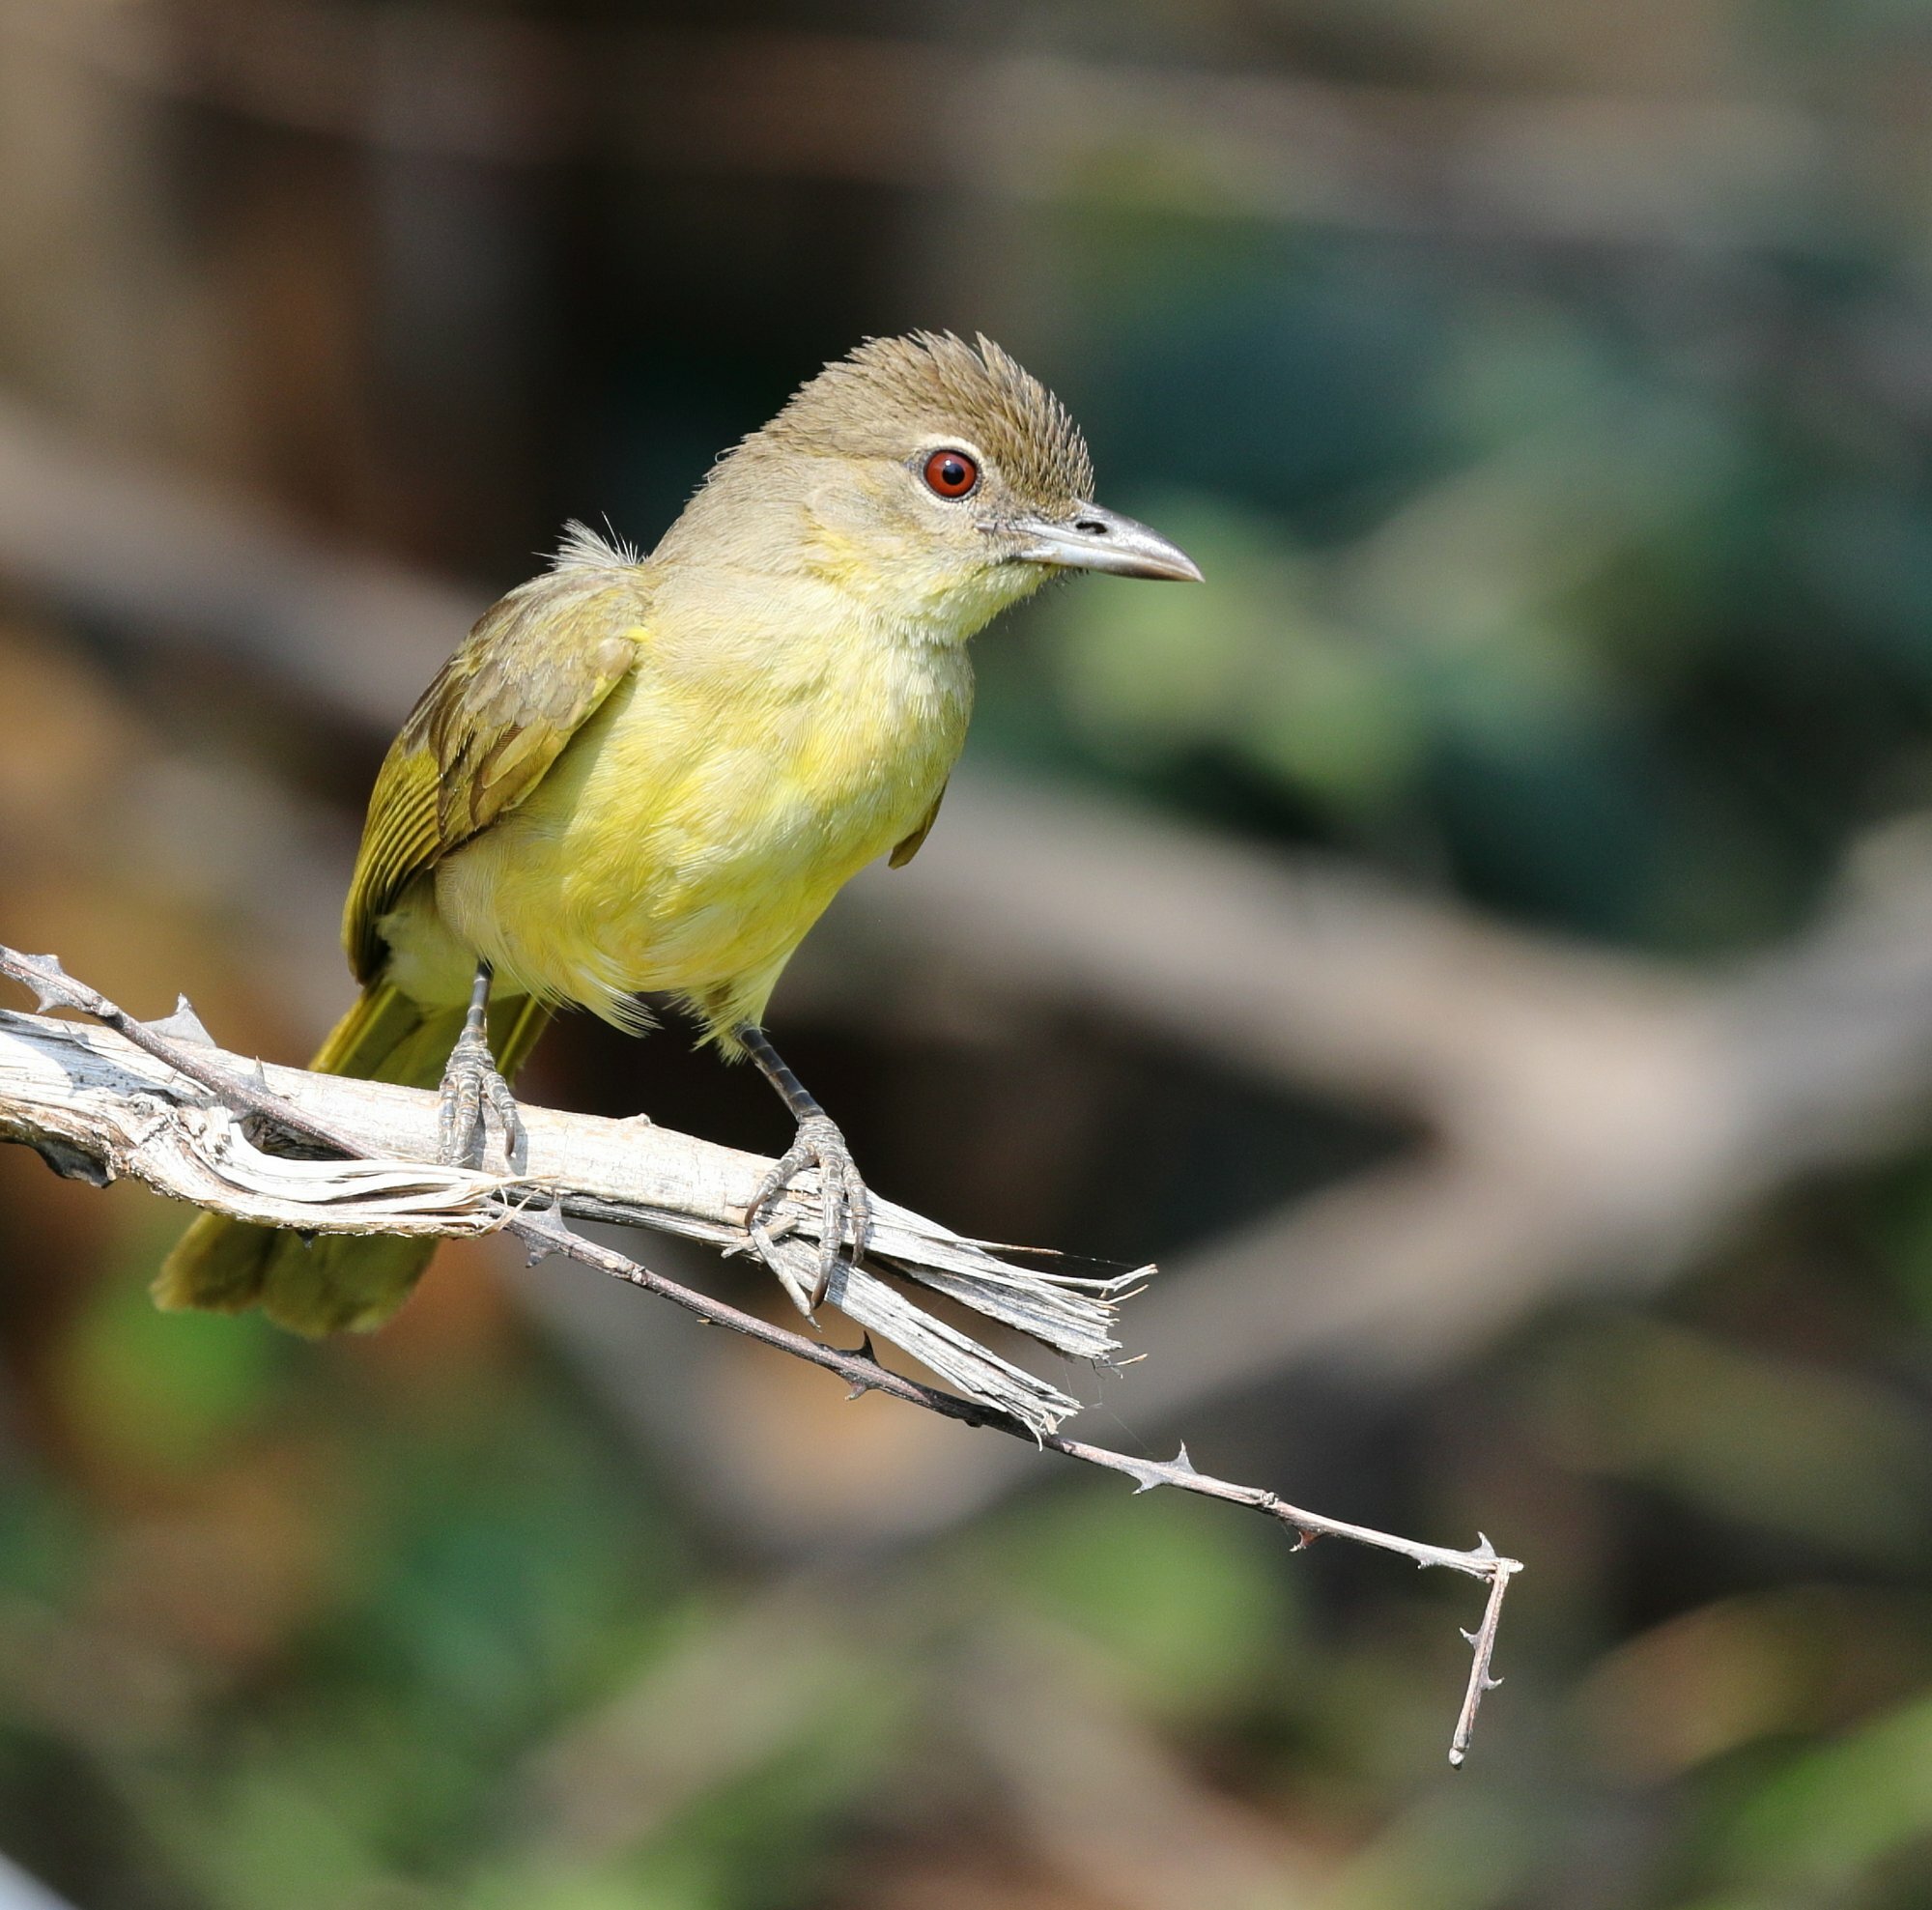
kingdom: Animalia
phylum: Chordata
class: Aves
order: Passeriformes
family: Pycnonotidae
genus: Chlorocichla
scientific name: Chlorocichla flaviventris
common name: Yellow-bellied greenbul
